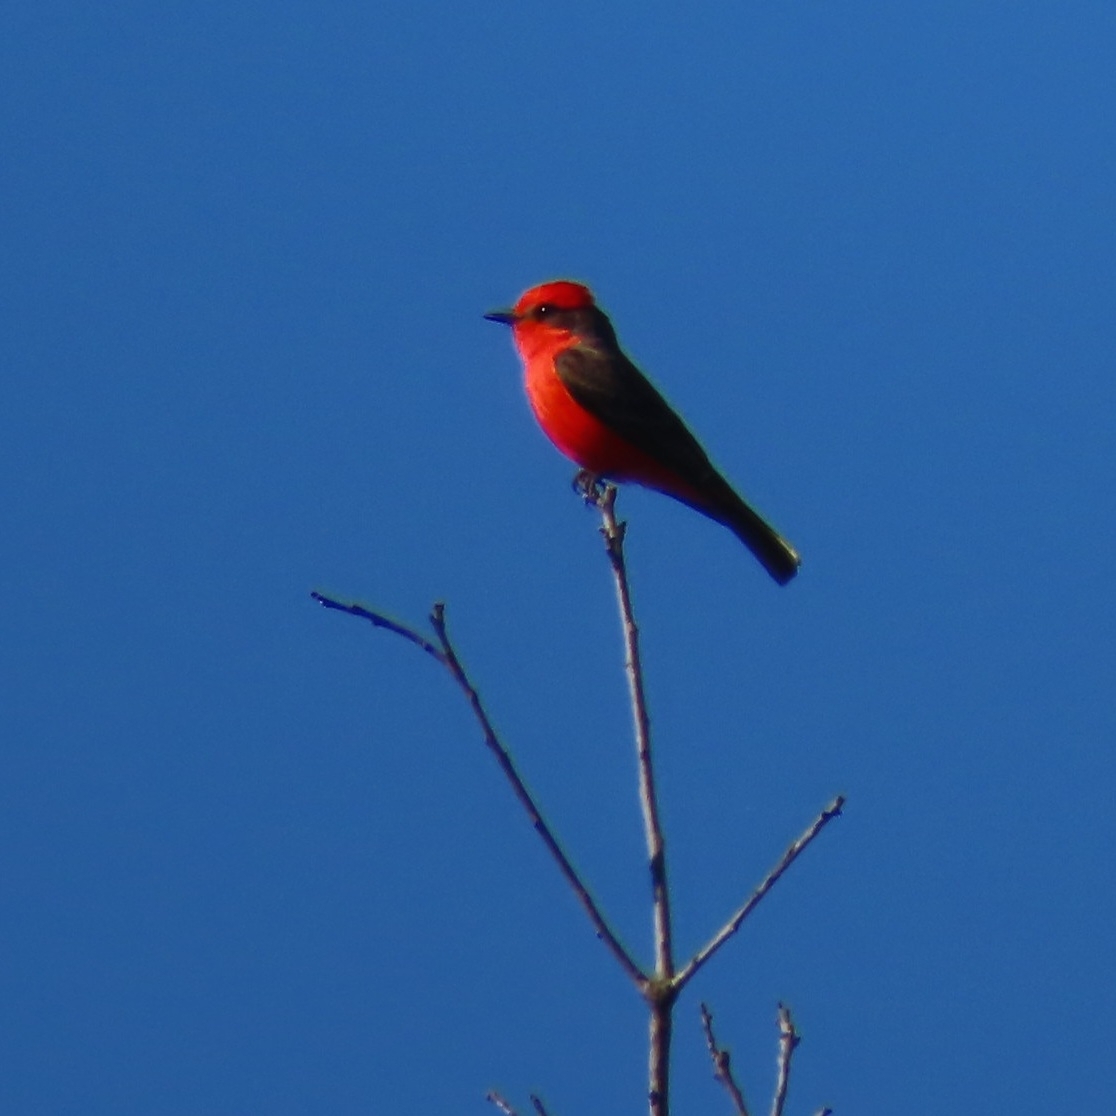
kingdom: Animalia
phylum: Chordata
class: Aves
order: Passeriformes
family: Tyrannidae
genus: Pyrocephalus
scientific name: Pyrocephalus rubinus
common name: Vermilion flycatcher
